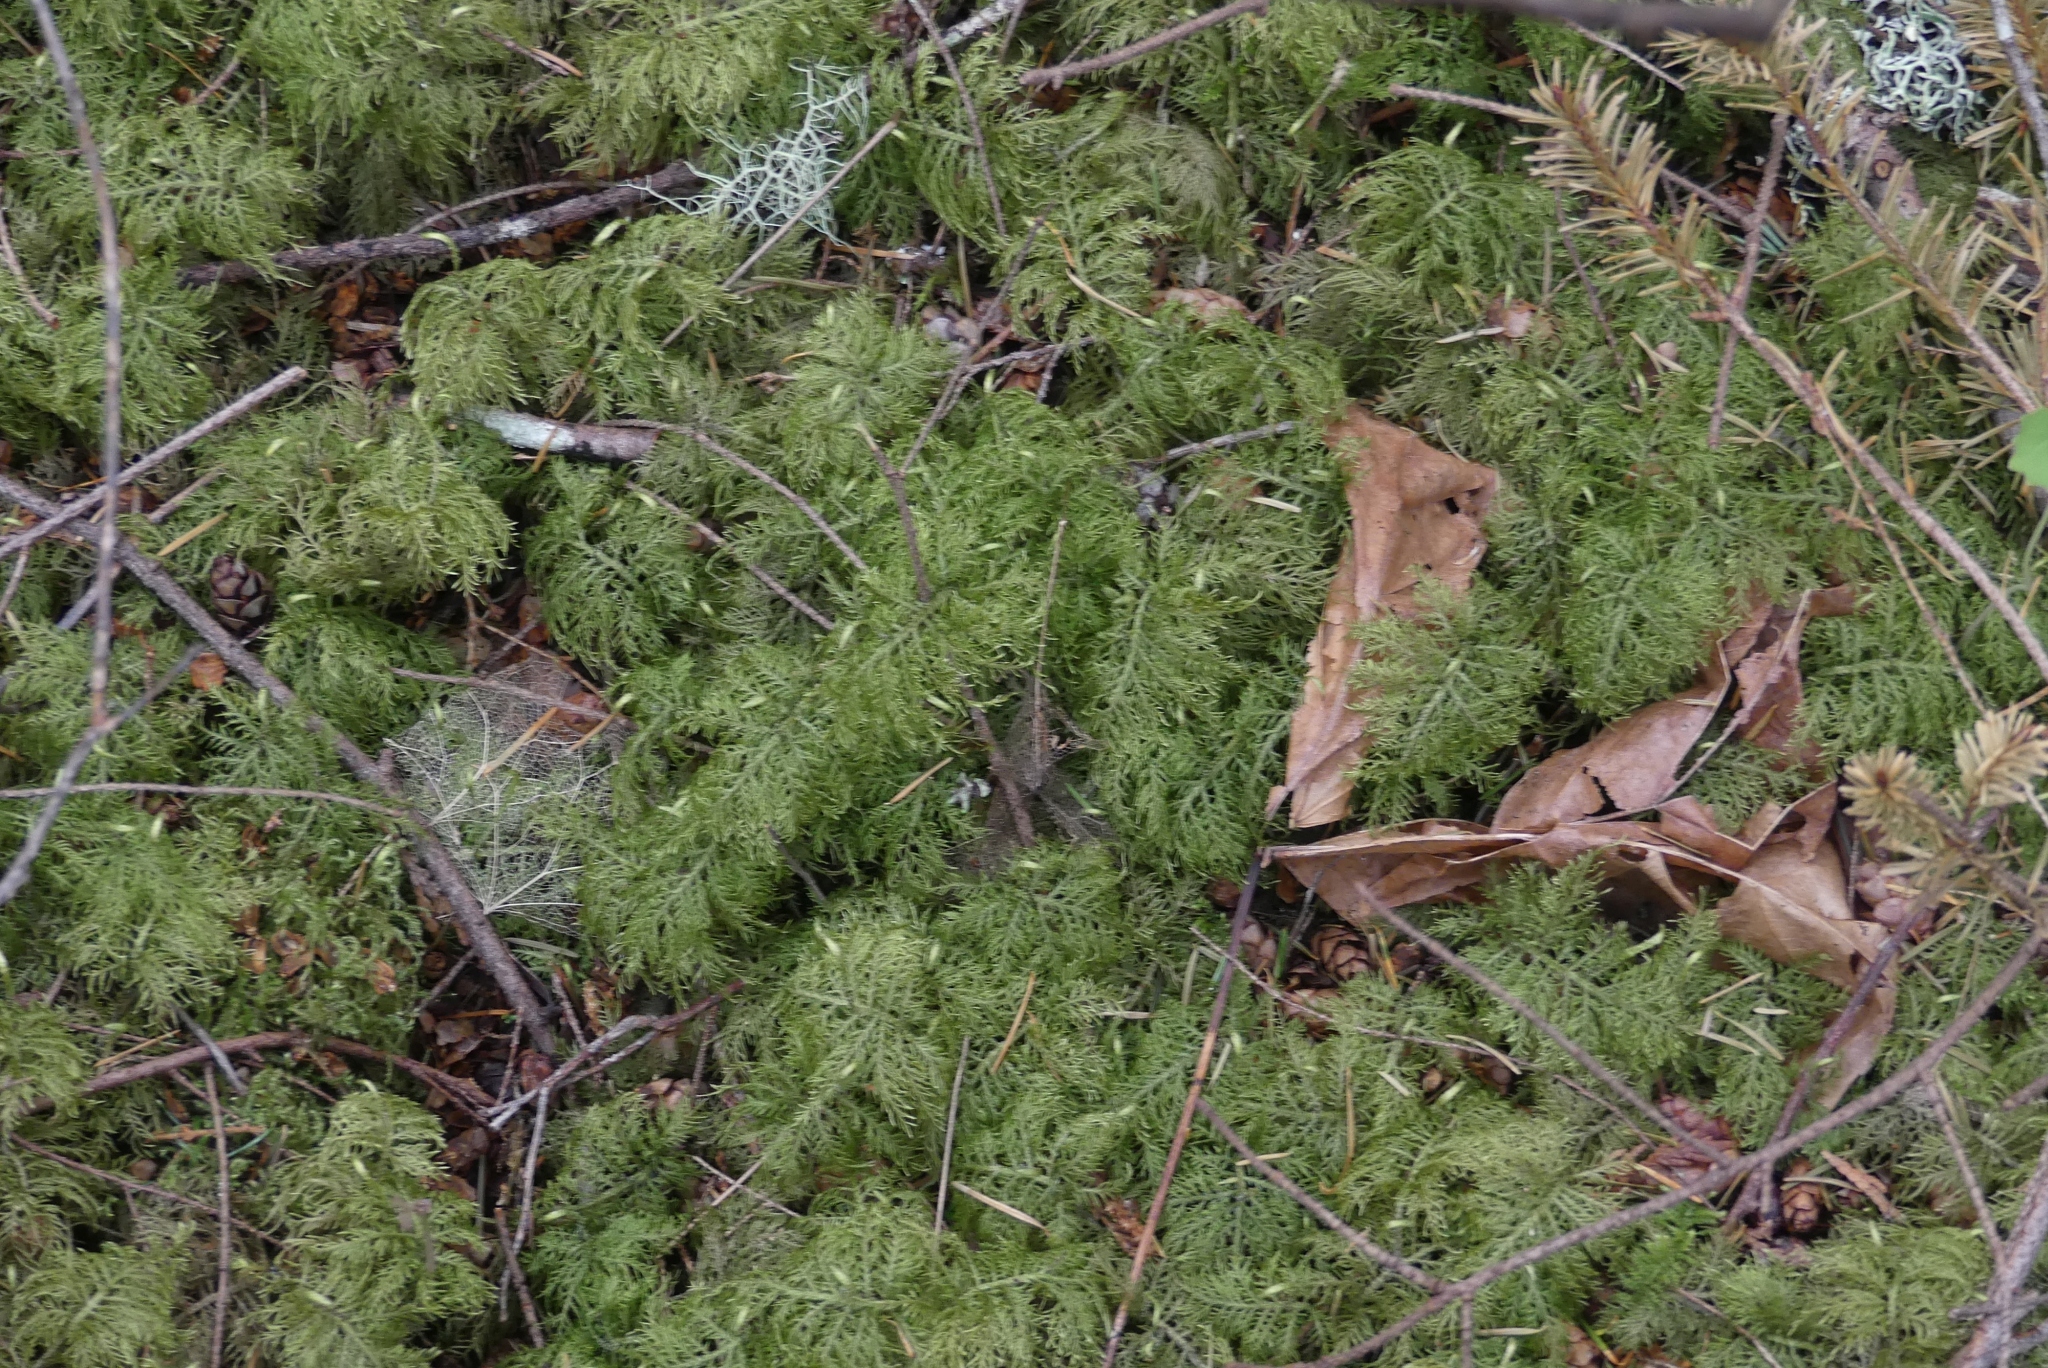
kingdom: Plantae
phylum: Bryophyta
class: Bryopsida
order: Hypnales
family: Hylocomiaceae
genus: Hylocomium
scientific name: Hylocomium splendens
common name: Stairstep moss
